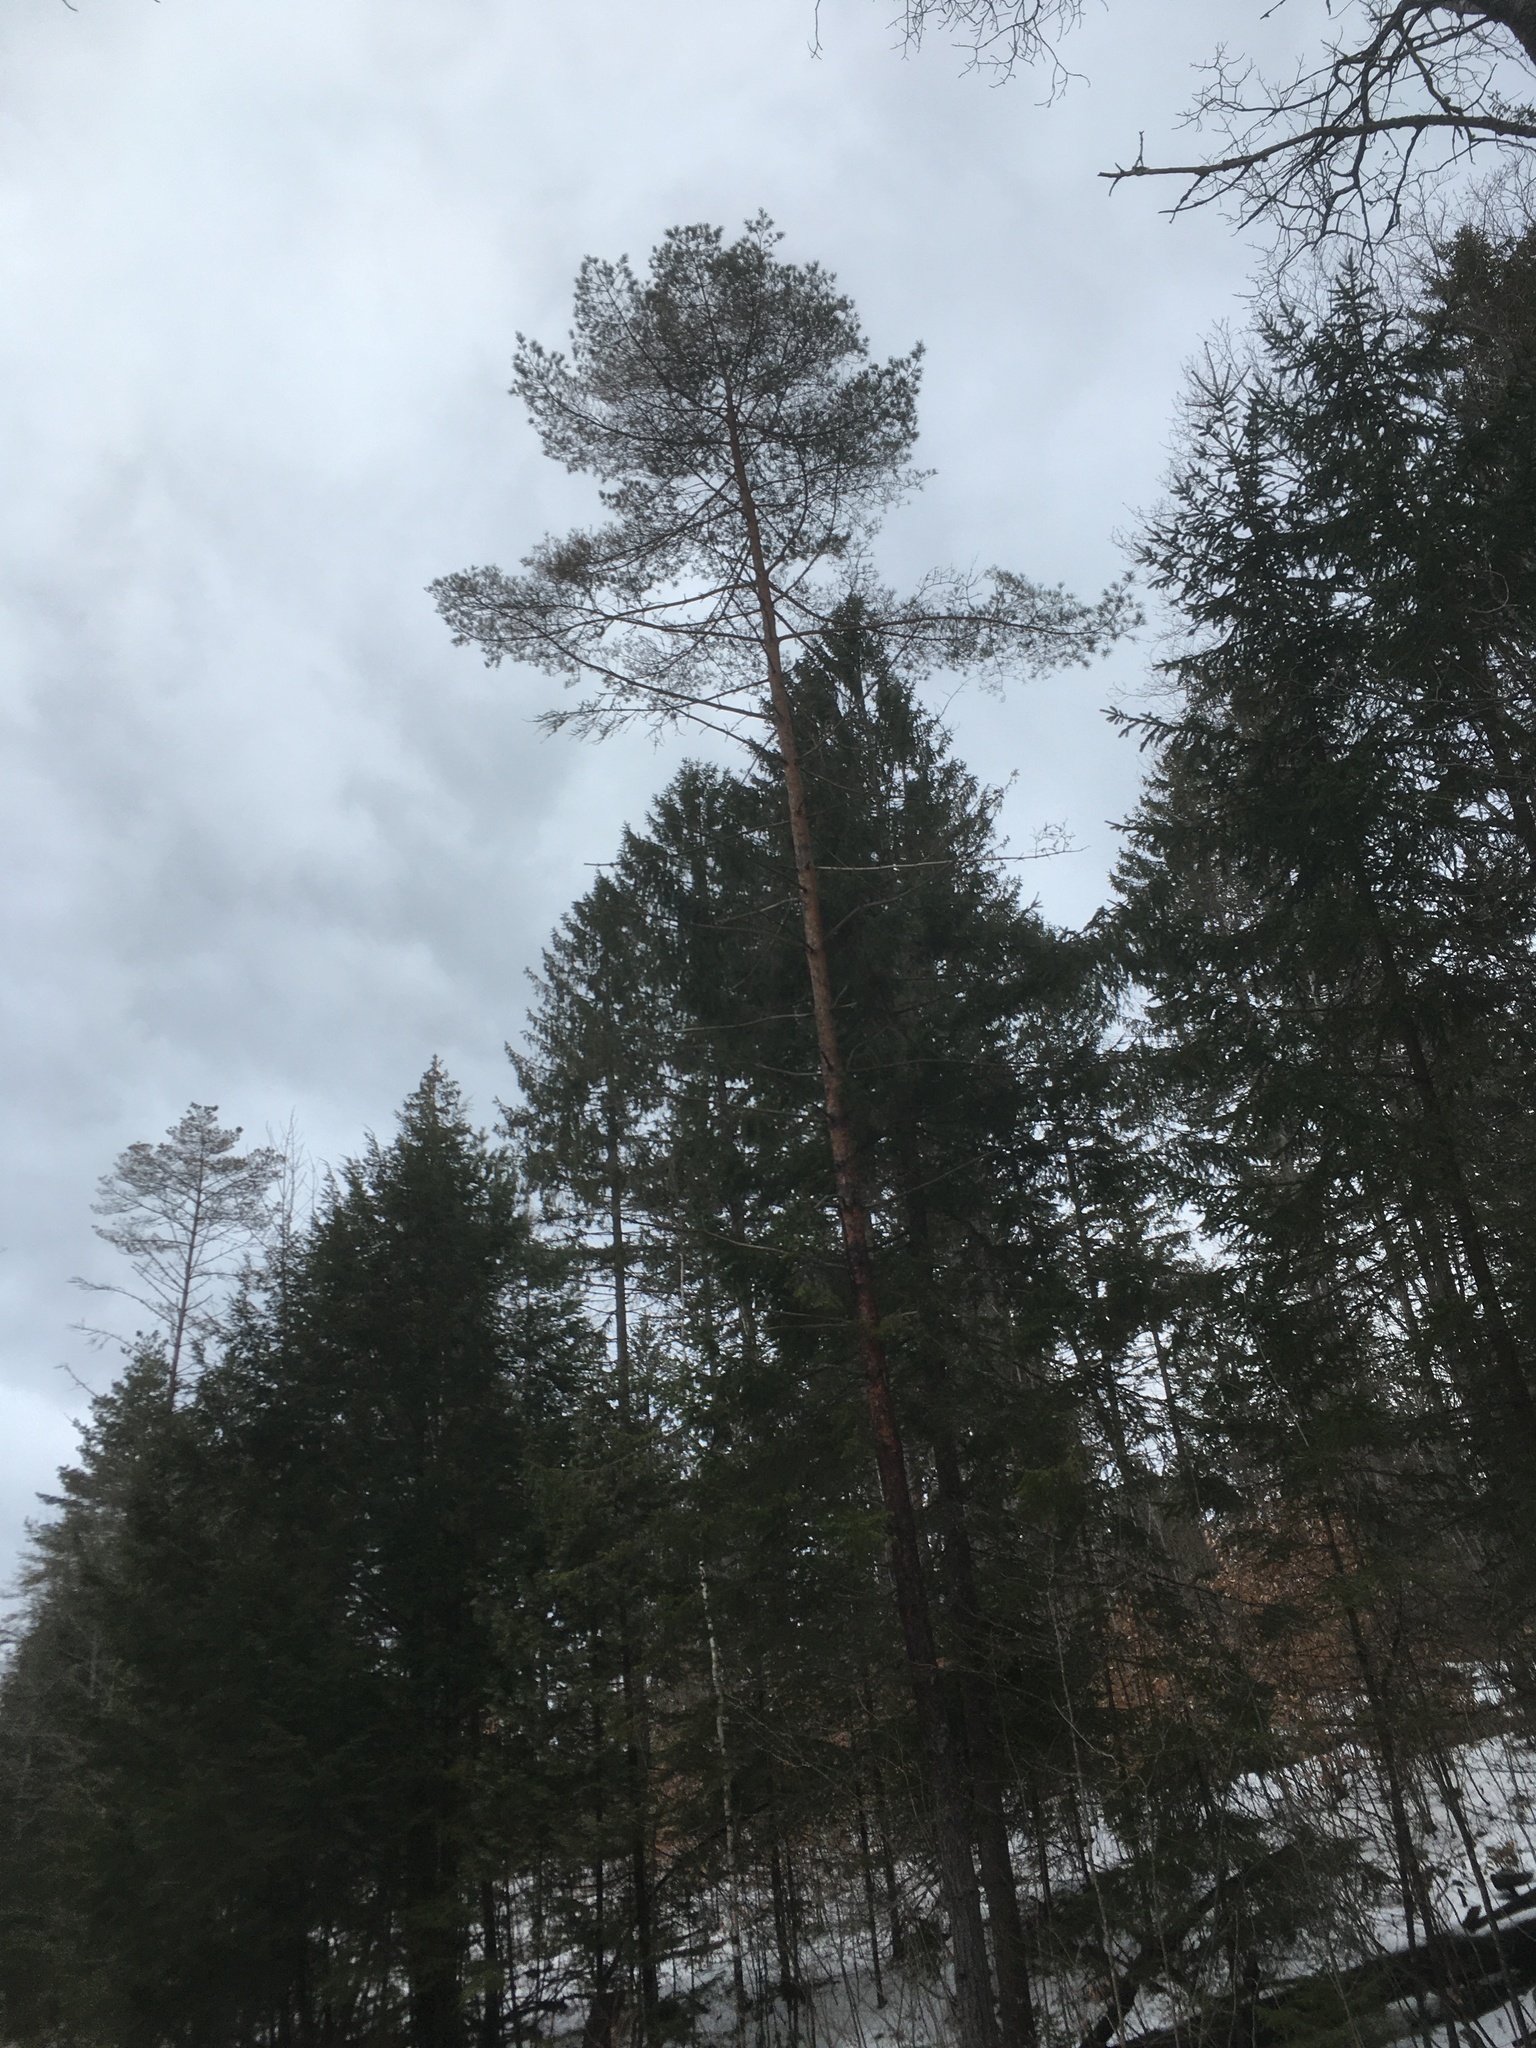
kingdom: Plantae
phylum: Tracheophyta
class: Pinopsida
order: Pinales
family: Pinaceae
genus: Pinus
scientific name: Pinus sylvestris
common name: Scots pine
